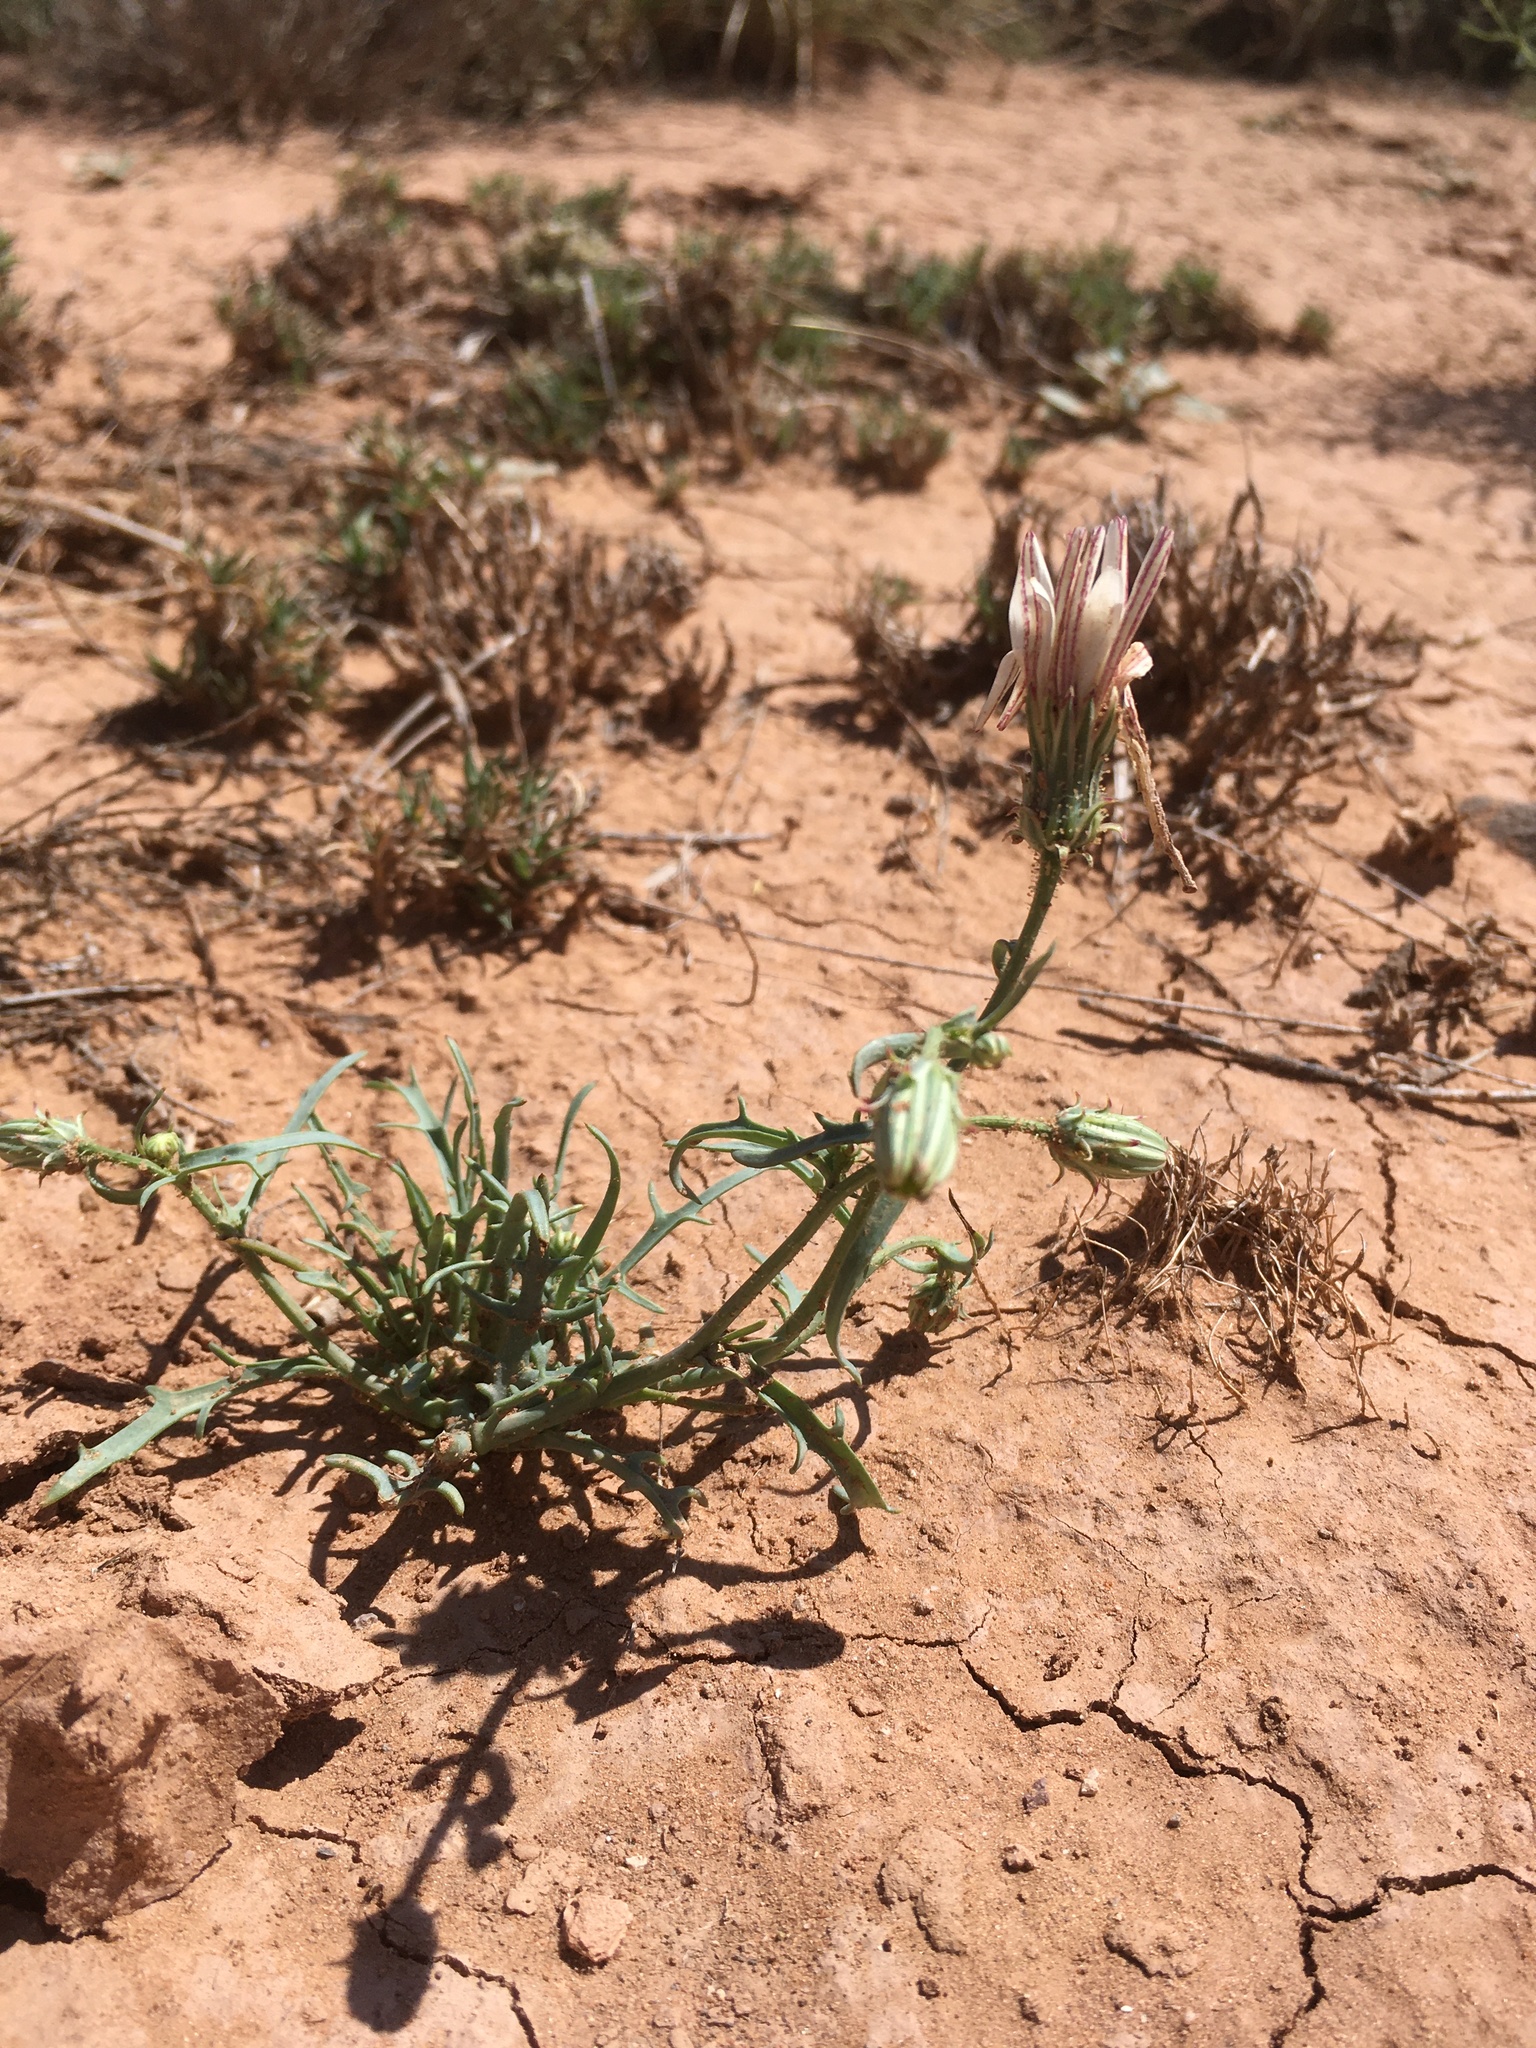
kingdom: Plantae
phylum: Tracheophyta
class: Magnoliopsida
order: Asterales
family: Asteraceae
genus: Calycoseris
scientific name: Calycoseris wrightii
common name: White tackstem
